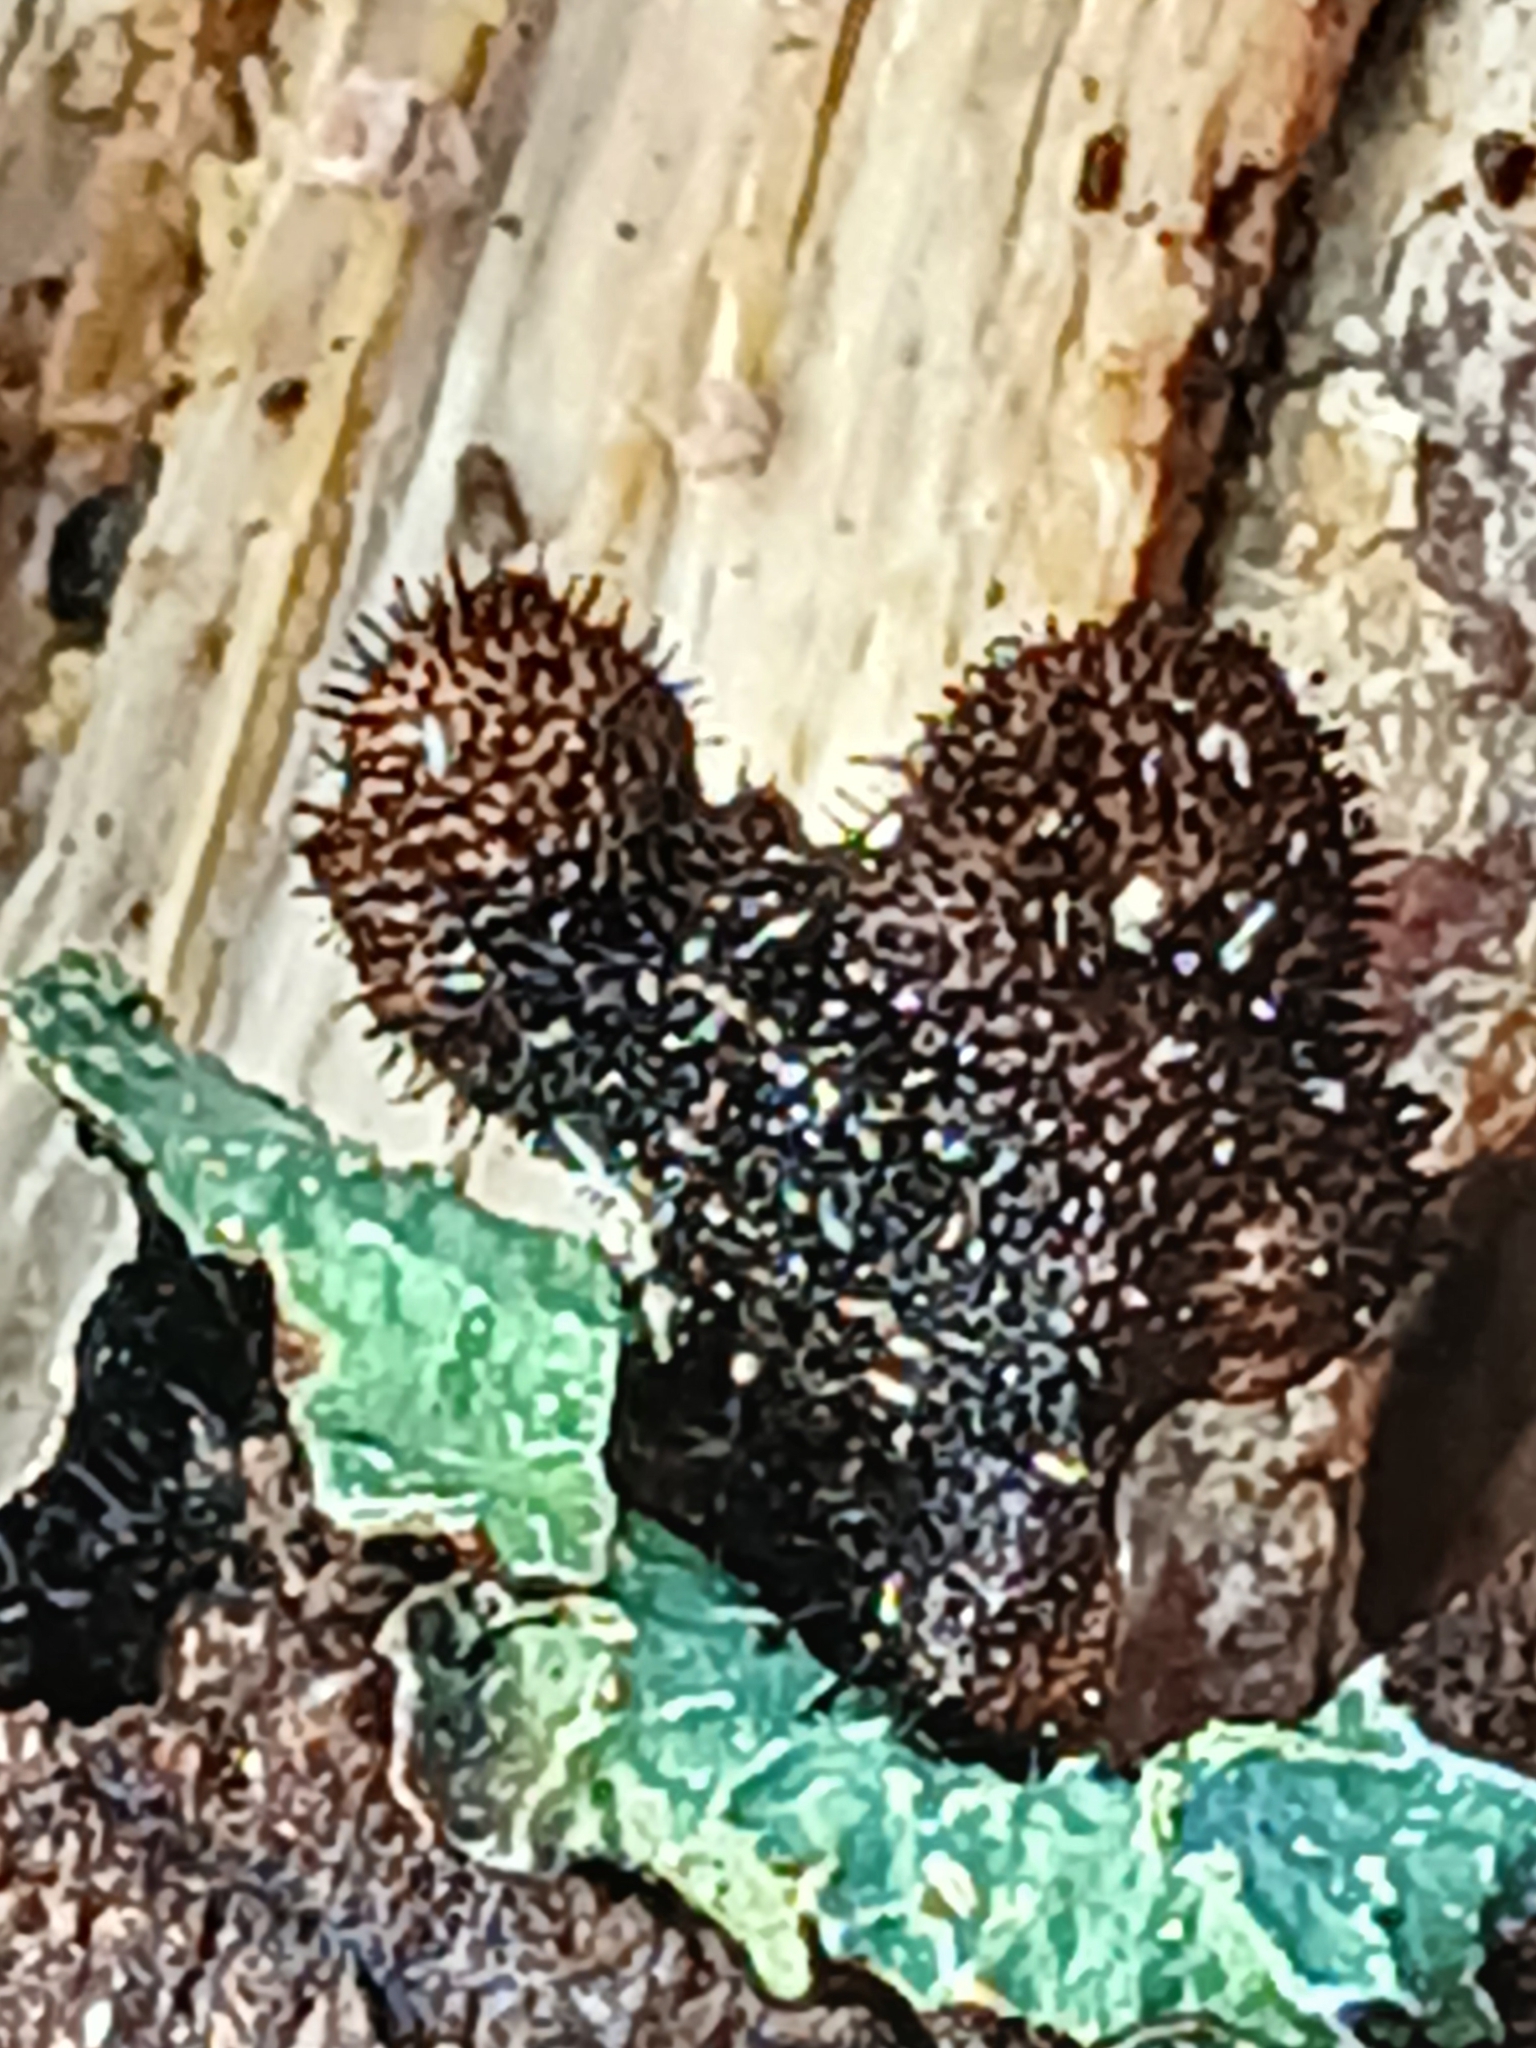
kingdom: Fungi
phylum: Ascomycota
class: Lecanoromycetes
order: Lecanorales
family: Parmeliaceae
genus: Parmelia
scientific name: Parmelia sulcata
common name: Netted shield lichen
